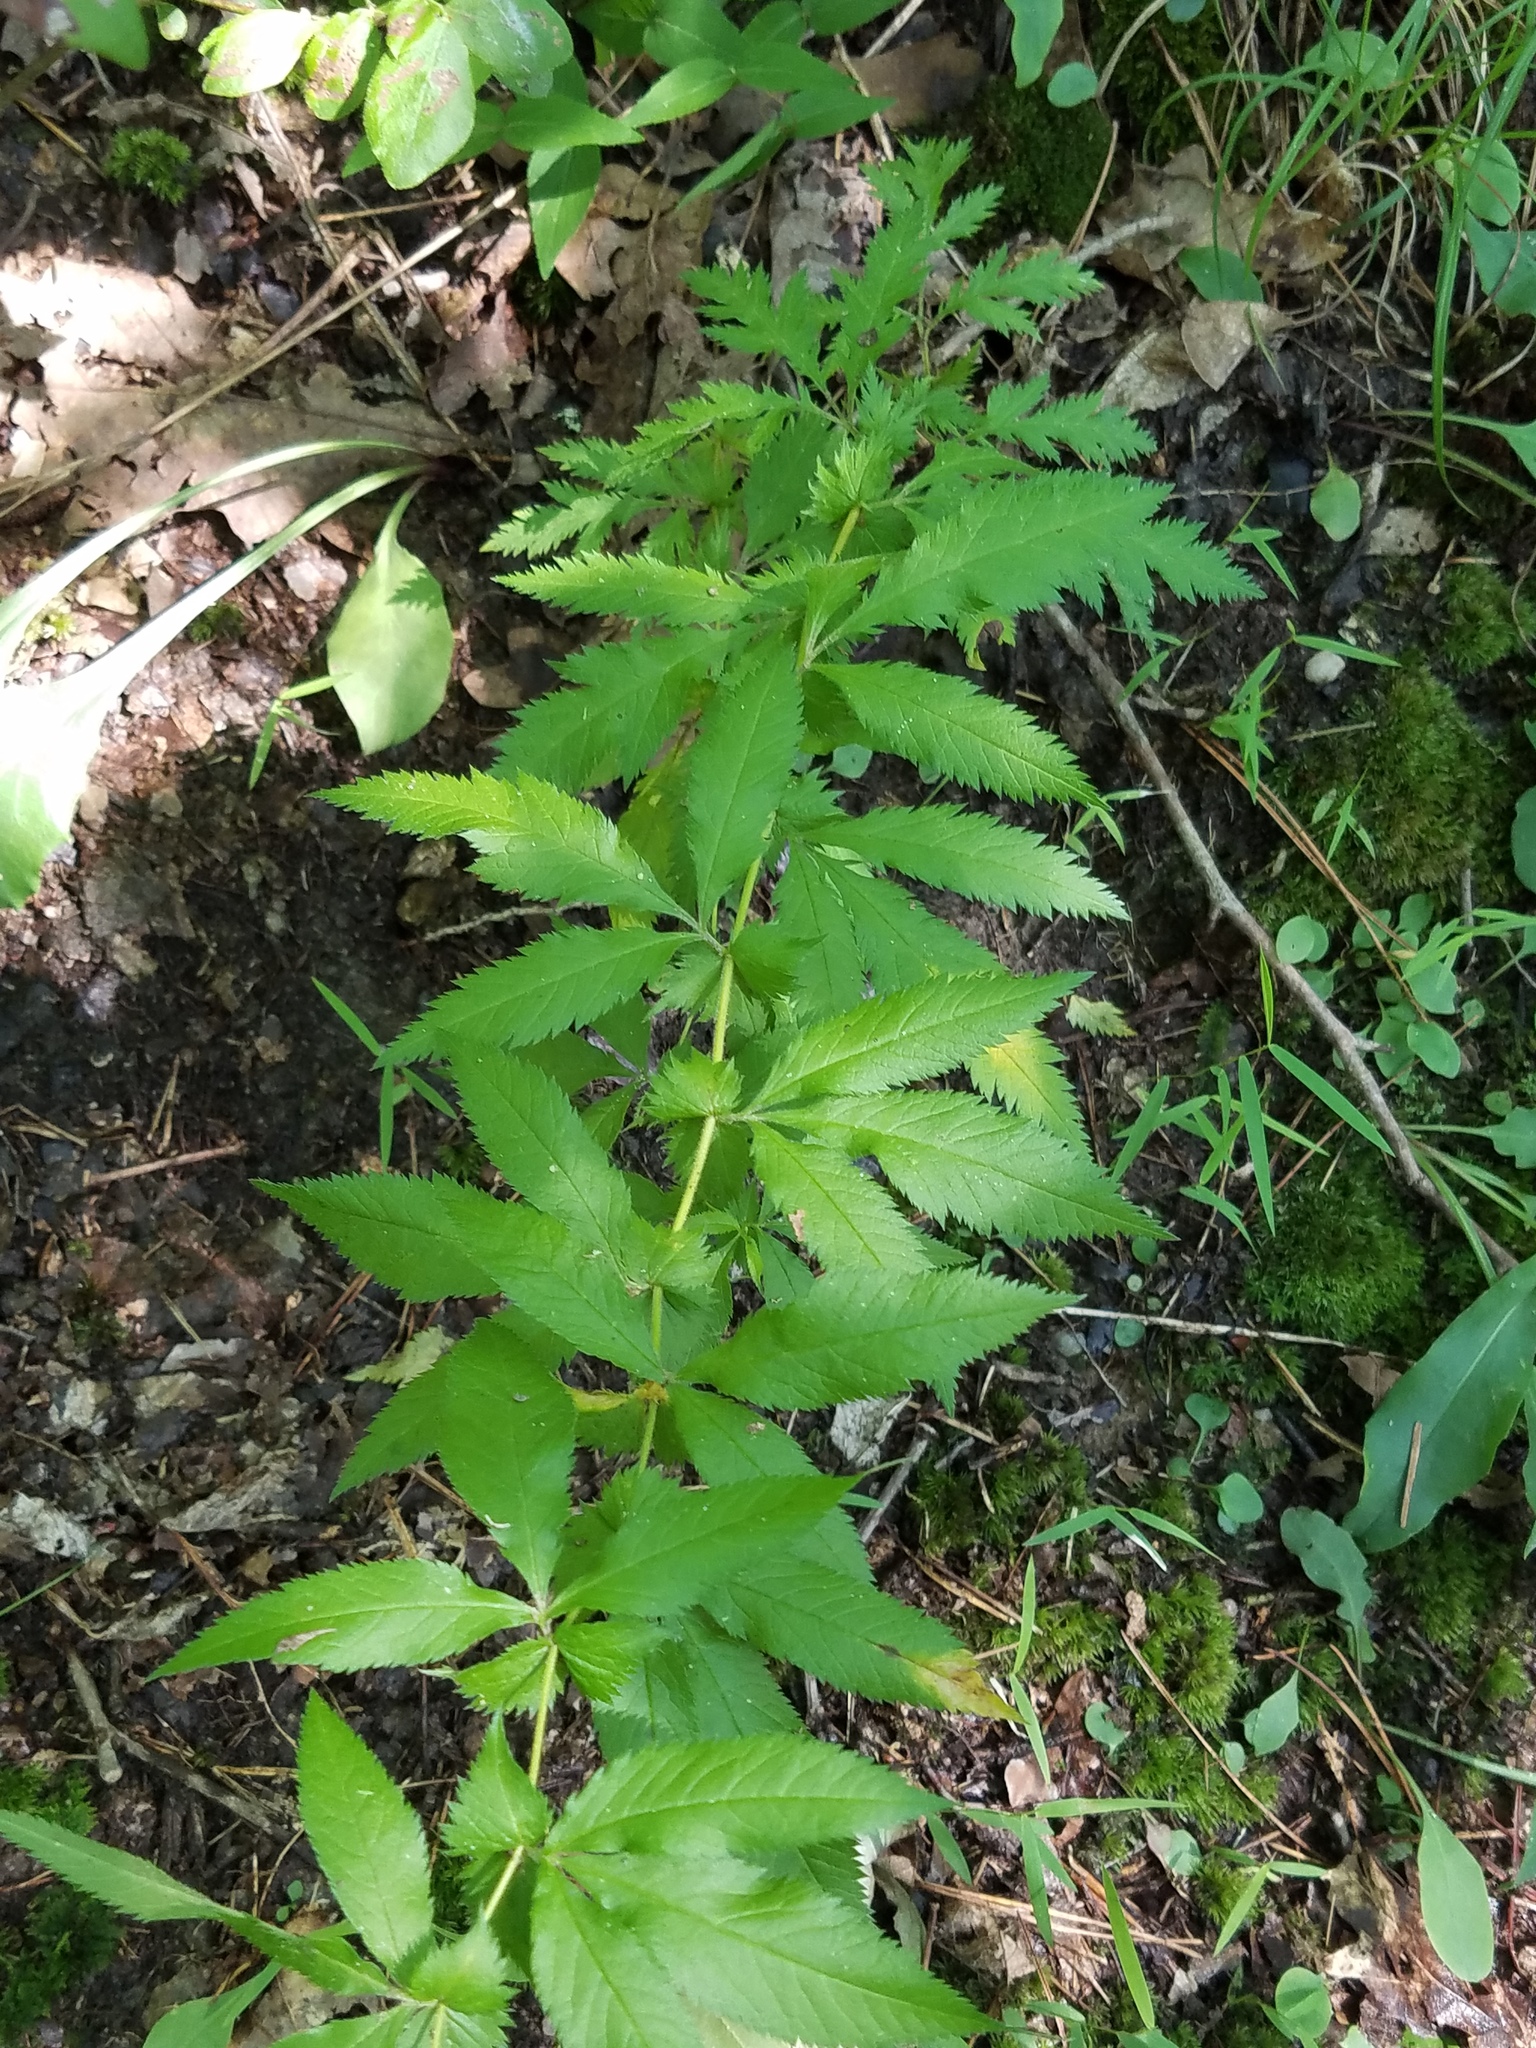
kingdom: Plantae
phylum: Tracheophyta
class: Magnoliopsida
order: Rosales
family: Rosaceae
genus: Gillenia
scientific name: Gillenia stipulata
